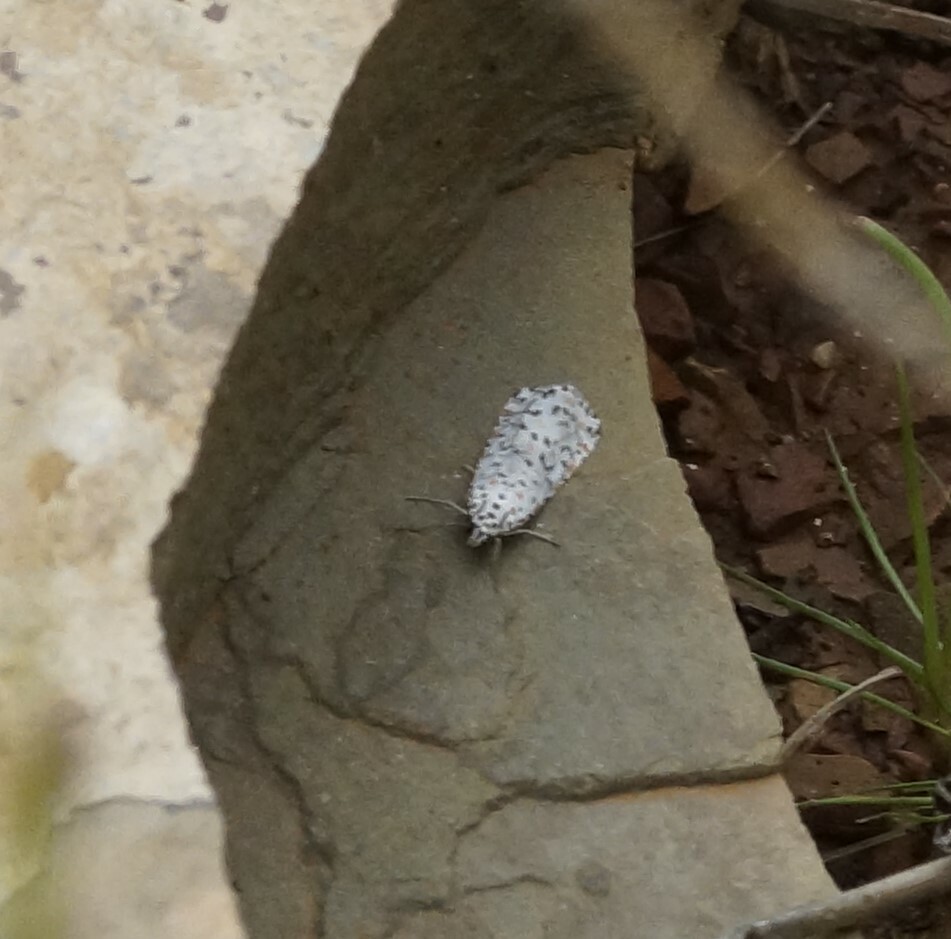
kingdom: Animalia
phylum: Arthropoda
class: Insecta
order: Lepidoptera
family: Erebidae
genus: Utetheisa
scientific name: Utetheisa pulchelloides
